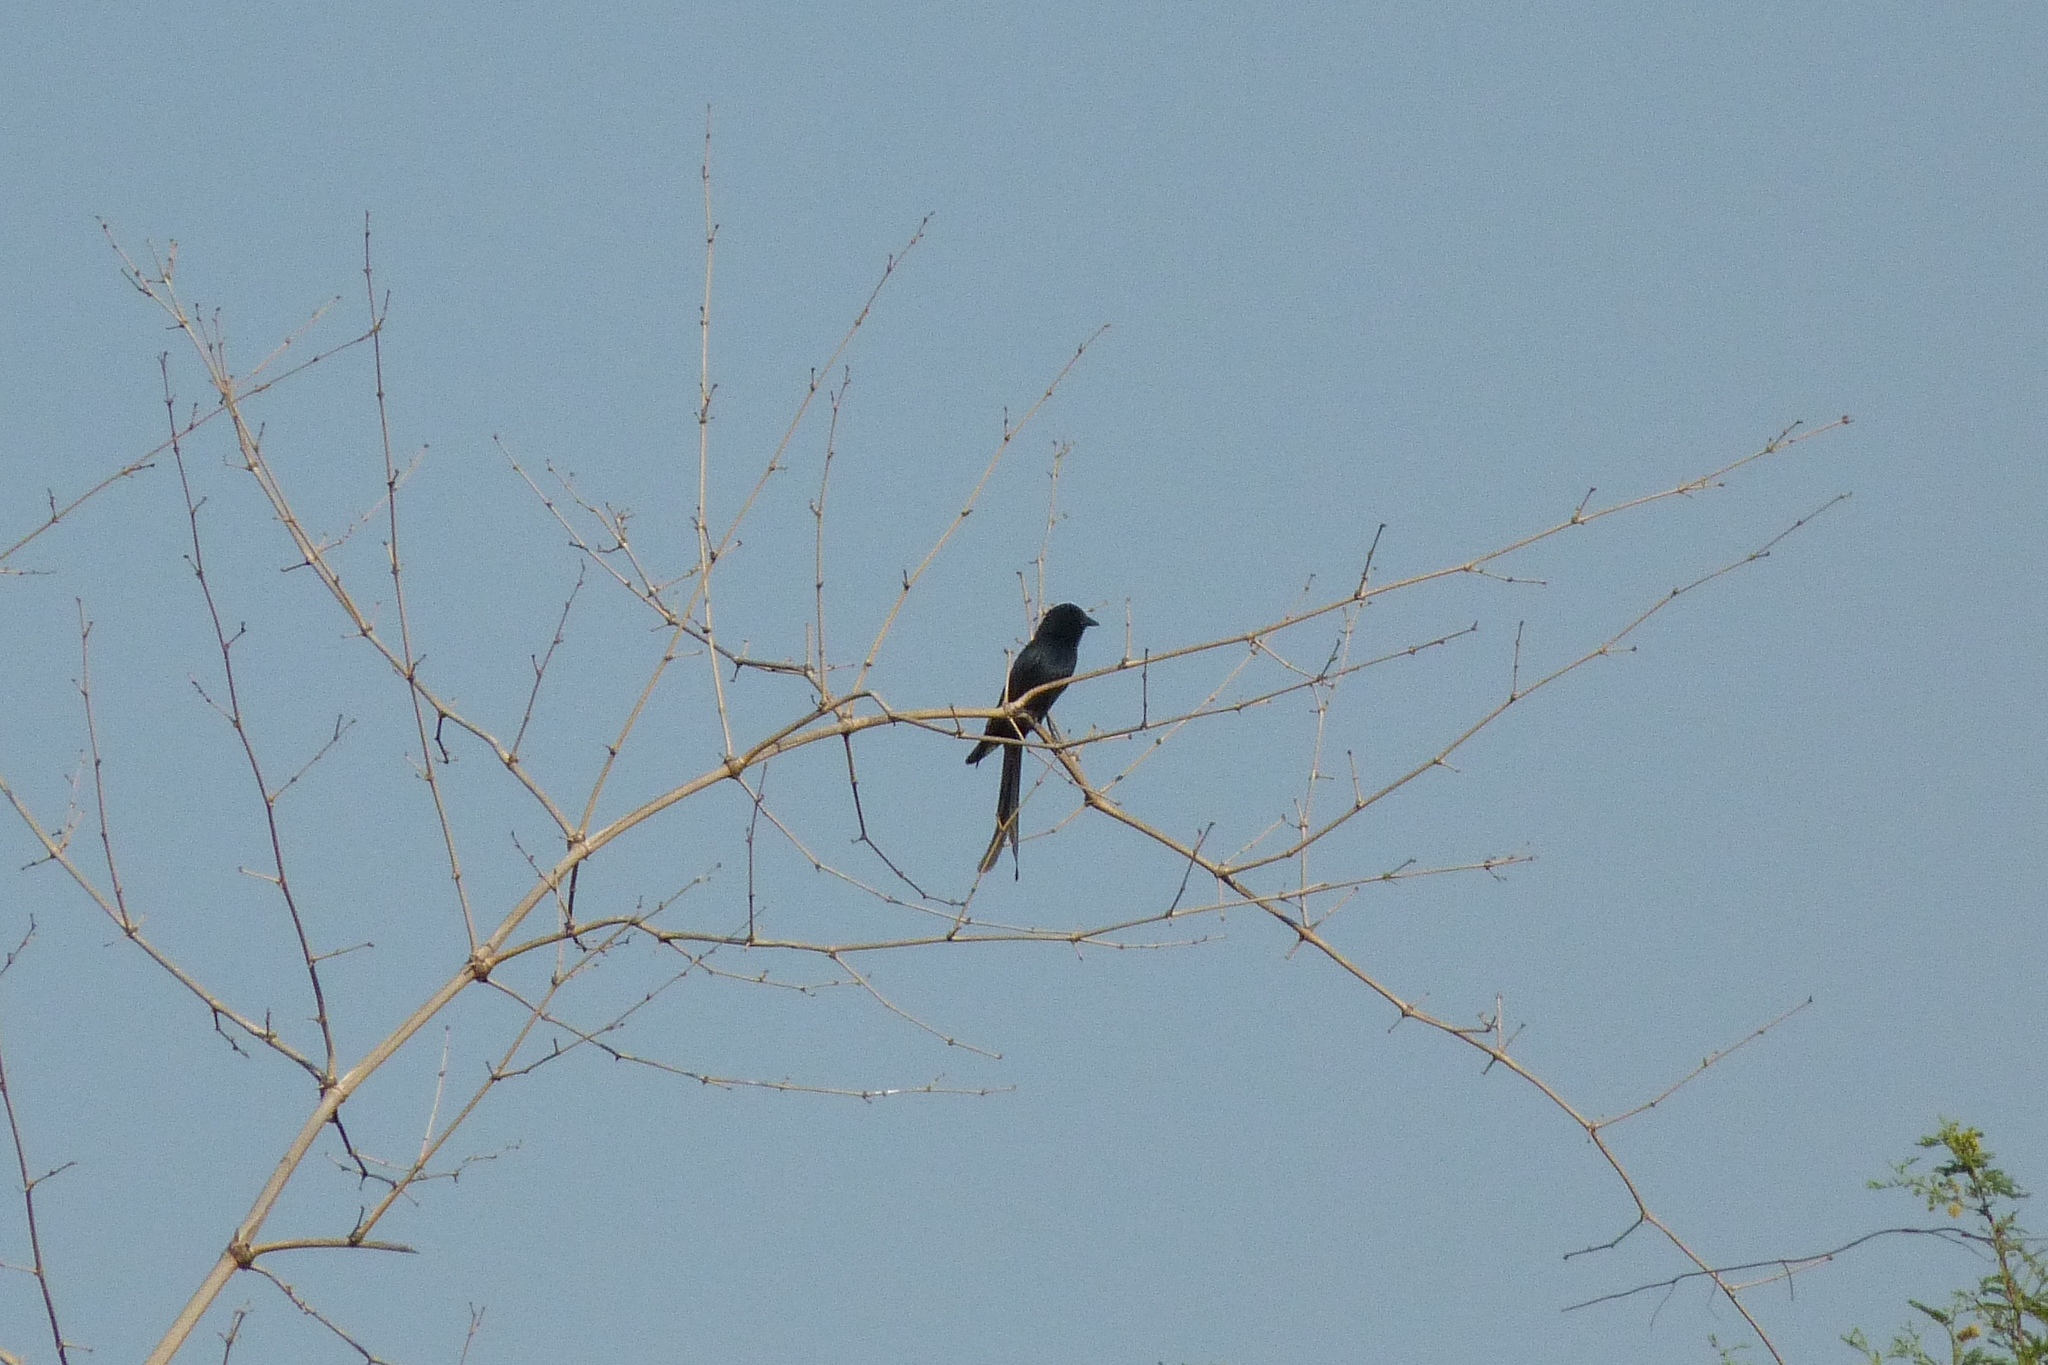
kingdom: Animalia
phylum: Chordata
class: Aves
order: Passeriformes
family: Dicruridae
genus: Dicrurus
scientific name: Dicrurus macrocercus
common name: Black drongo
